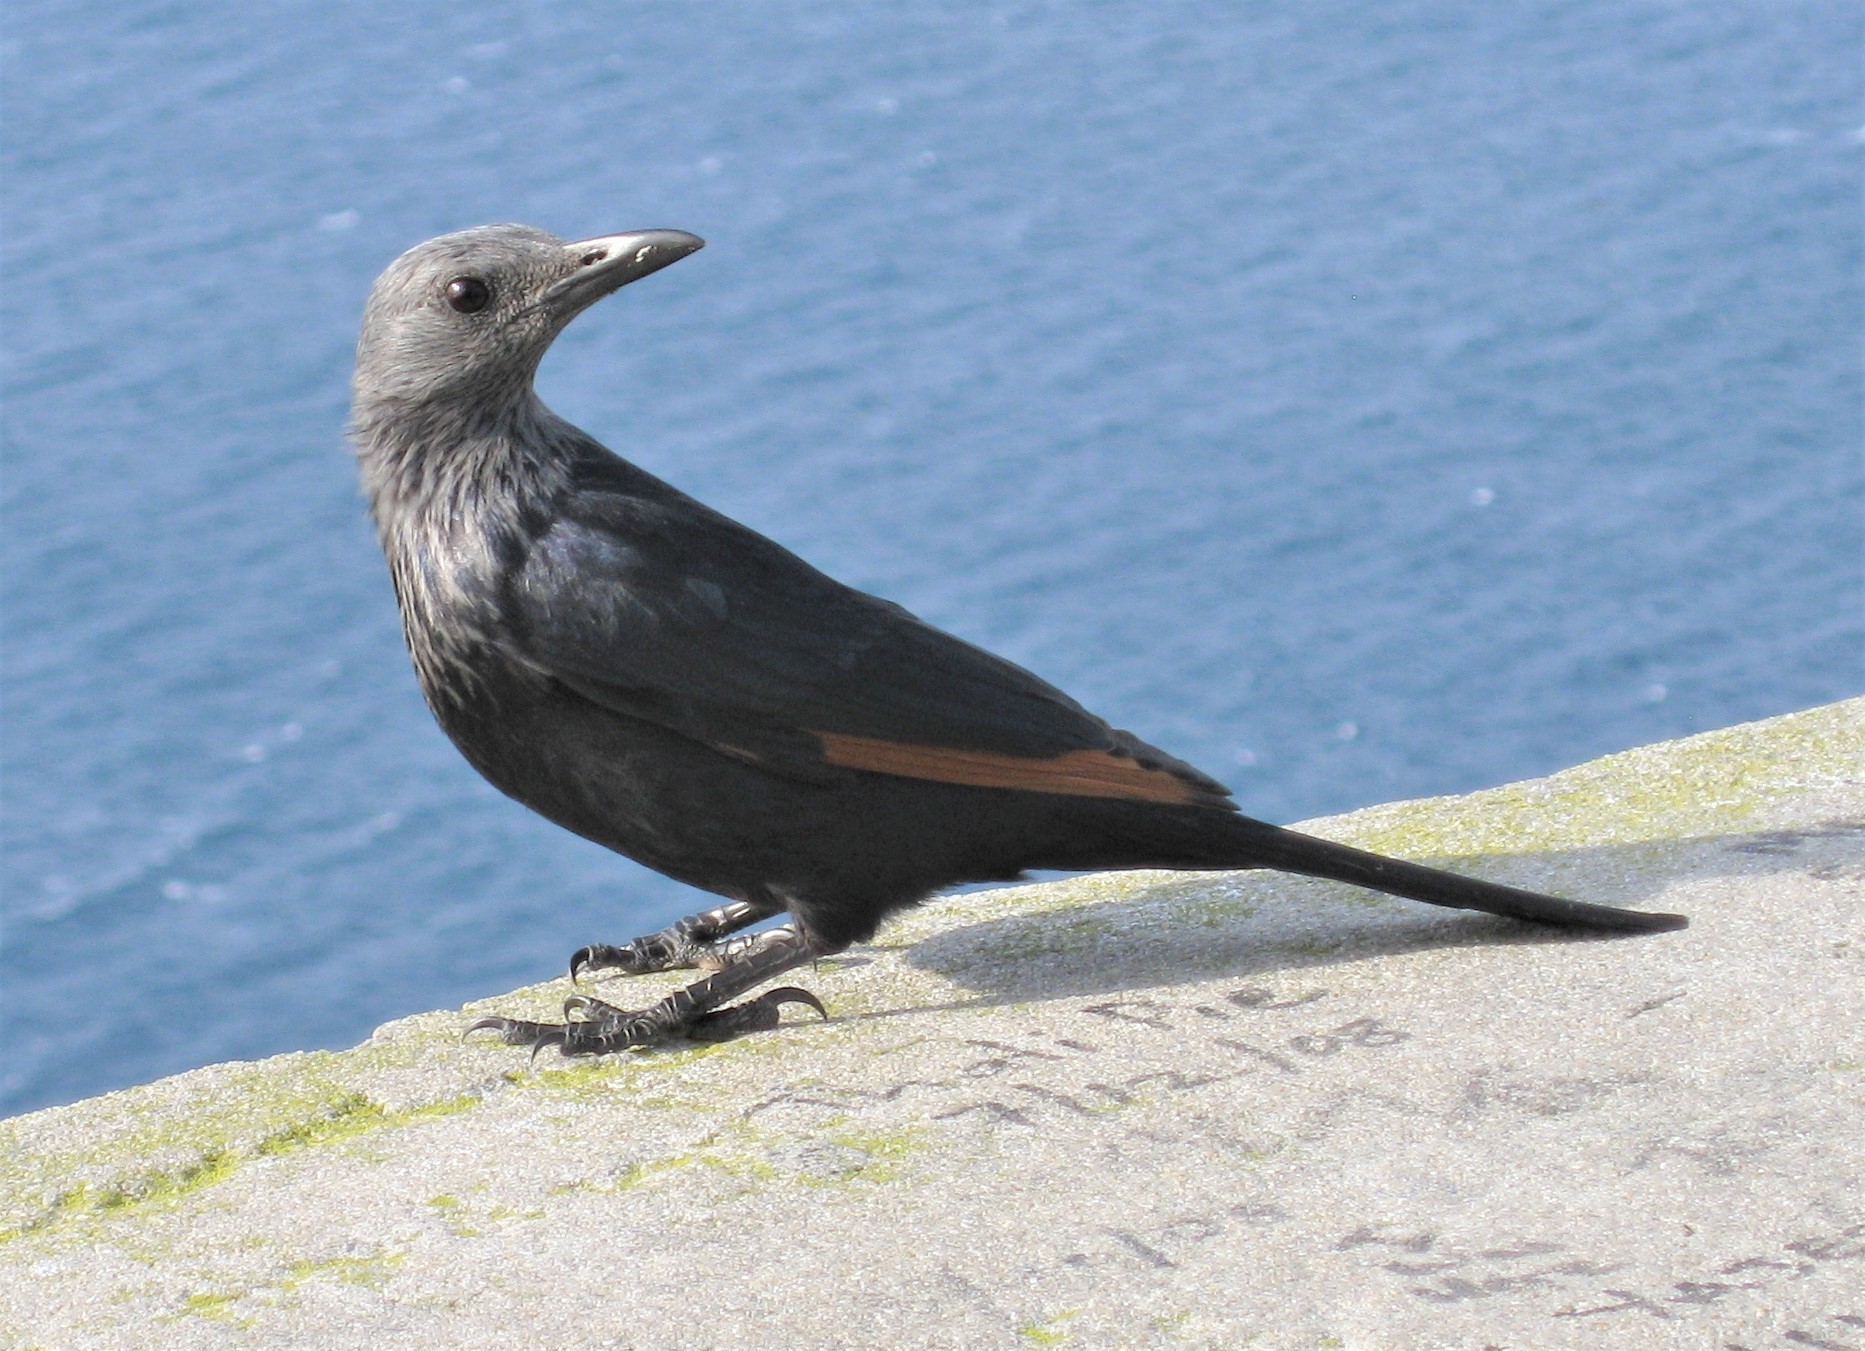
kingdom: Animalia
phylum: Chordata
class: Aves
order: Passeriformes
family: Sturnidae
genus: Onychognathus
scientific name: Onychognathus morio
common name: Red-winged starling
